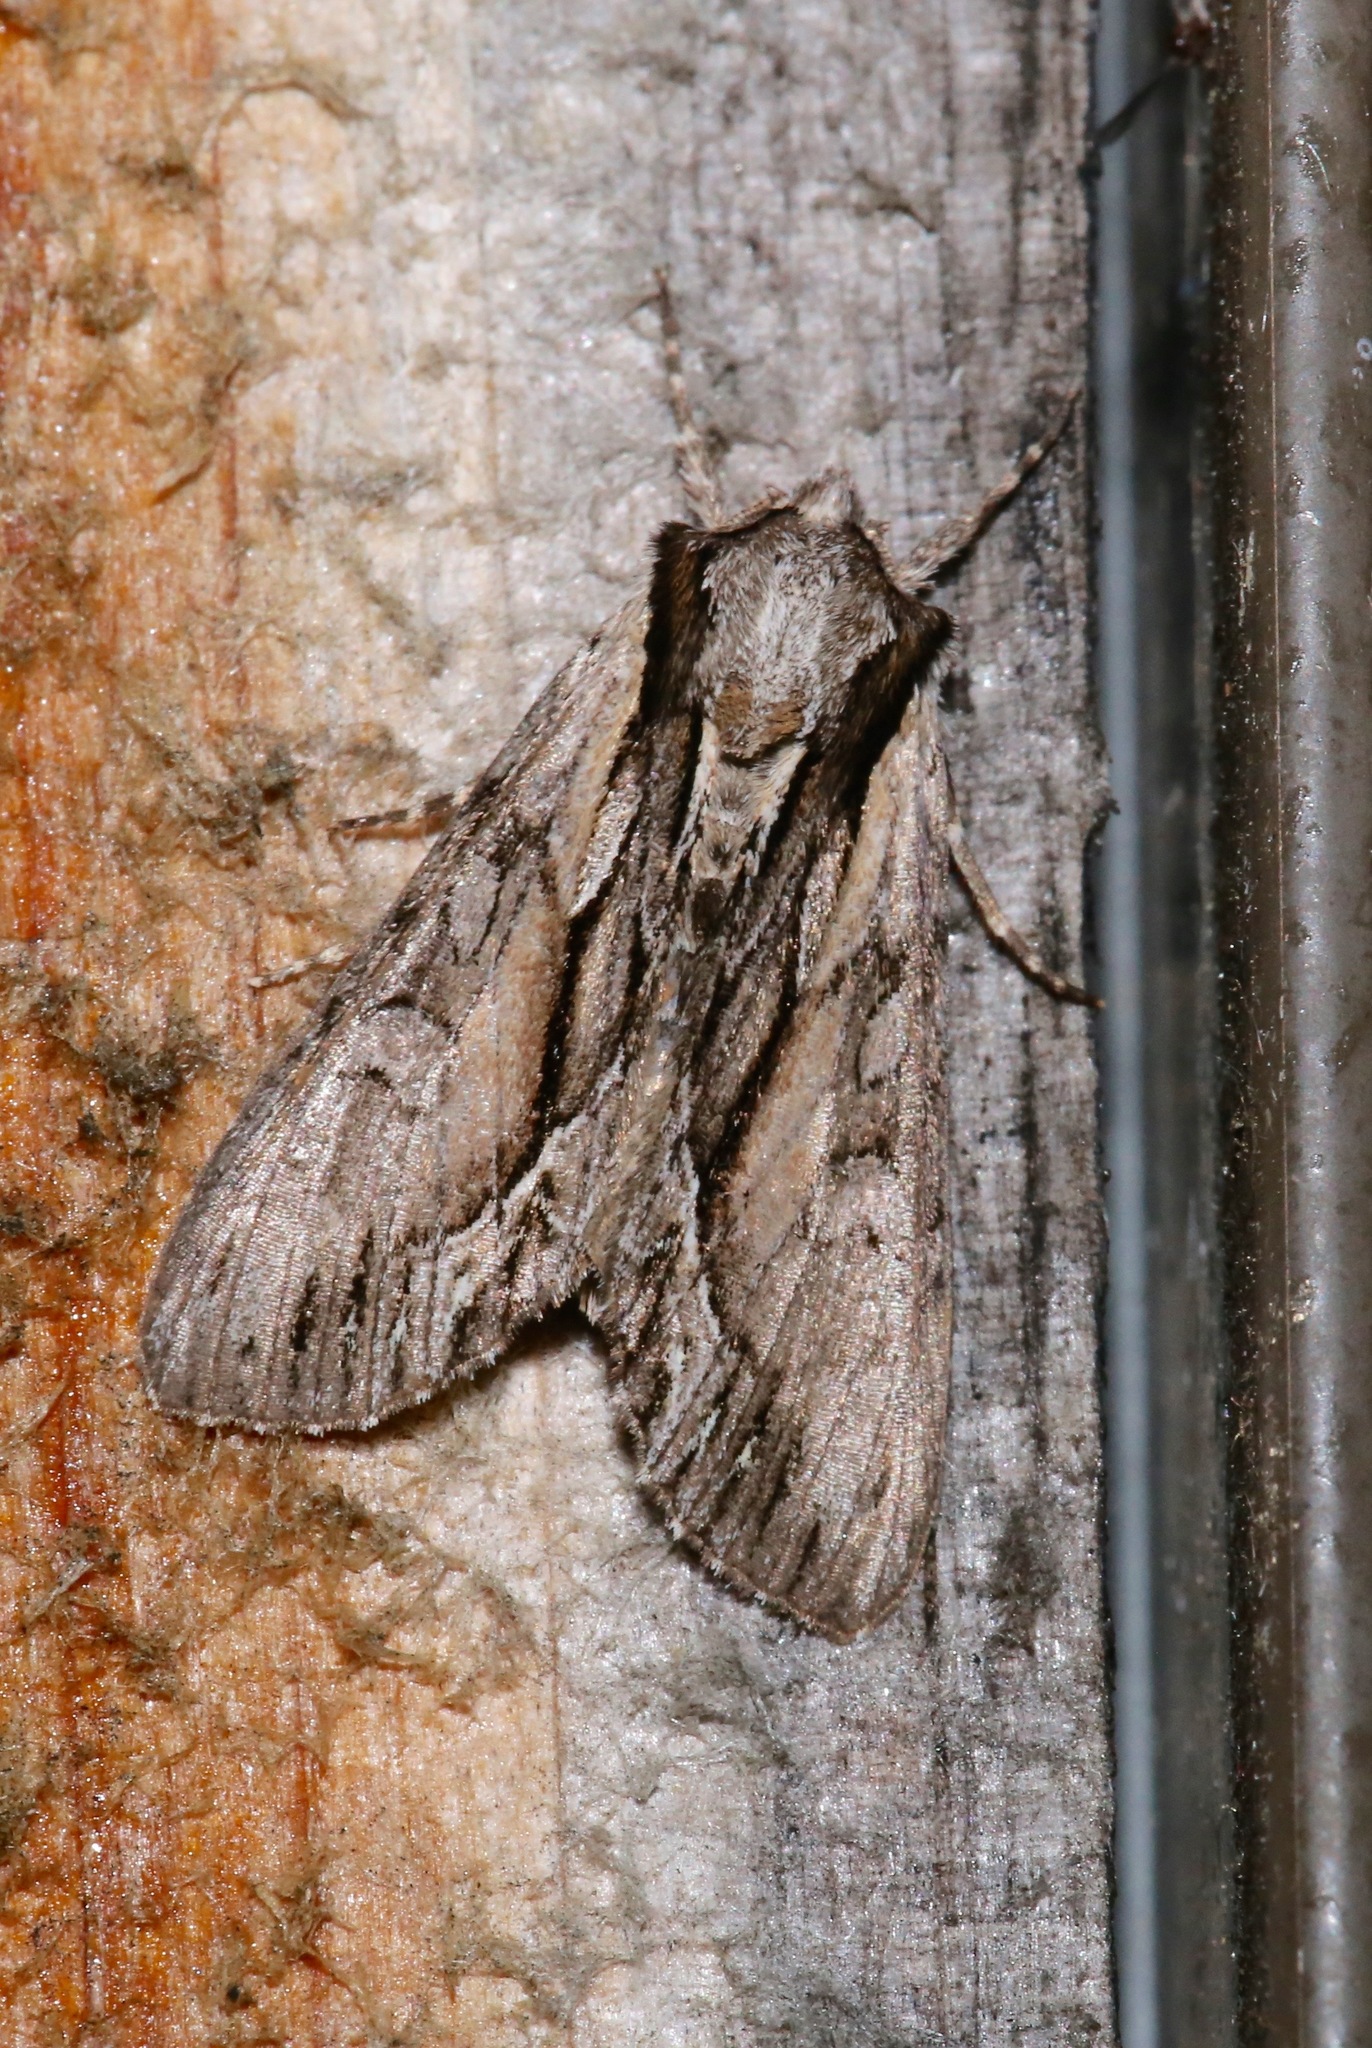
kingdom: Animalia
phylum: Arthropoda
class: Insecta
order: Lepidoptera
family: Noctuidae
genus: Hyppa
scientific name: Hyppa xylinoides
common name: Common hyppa moth
